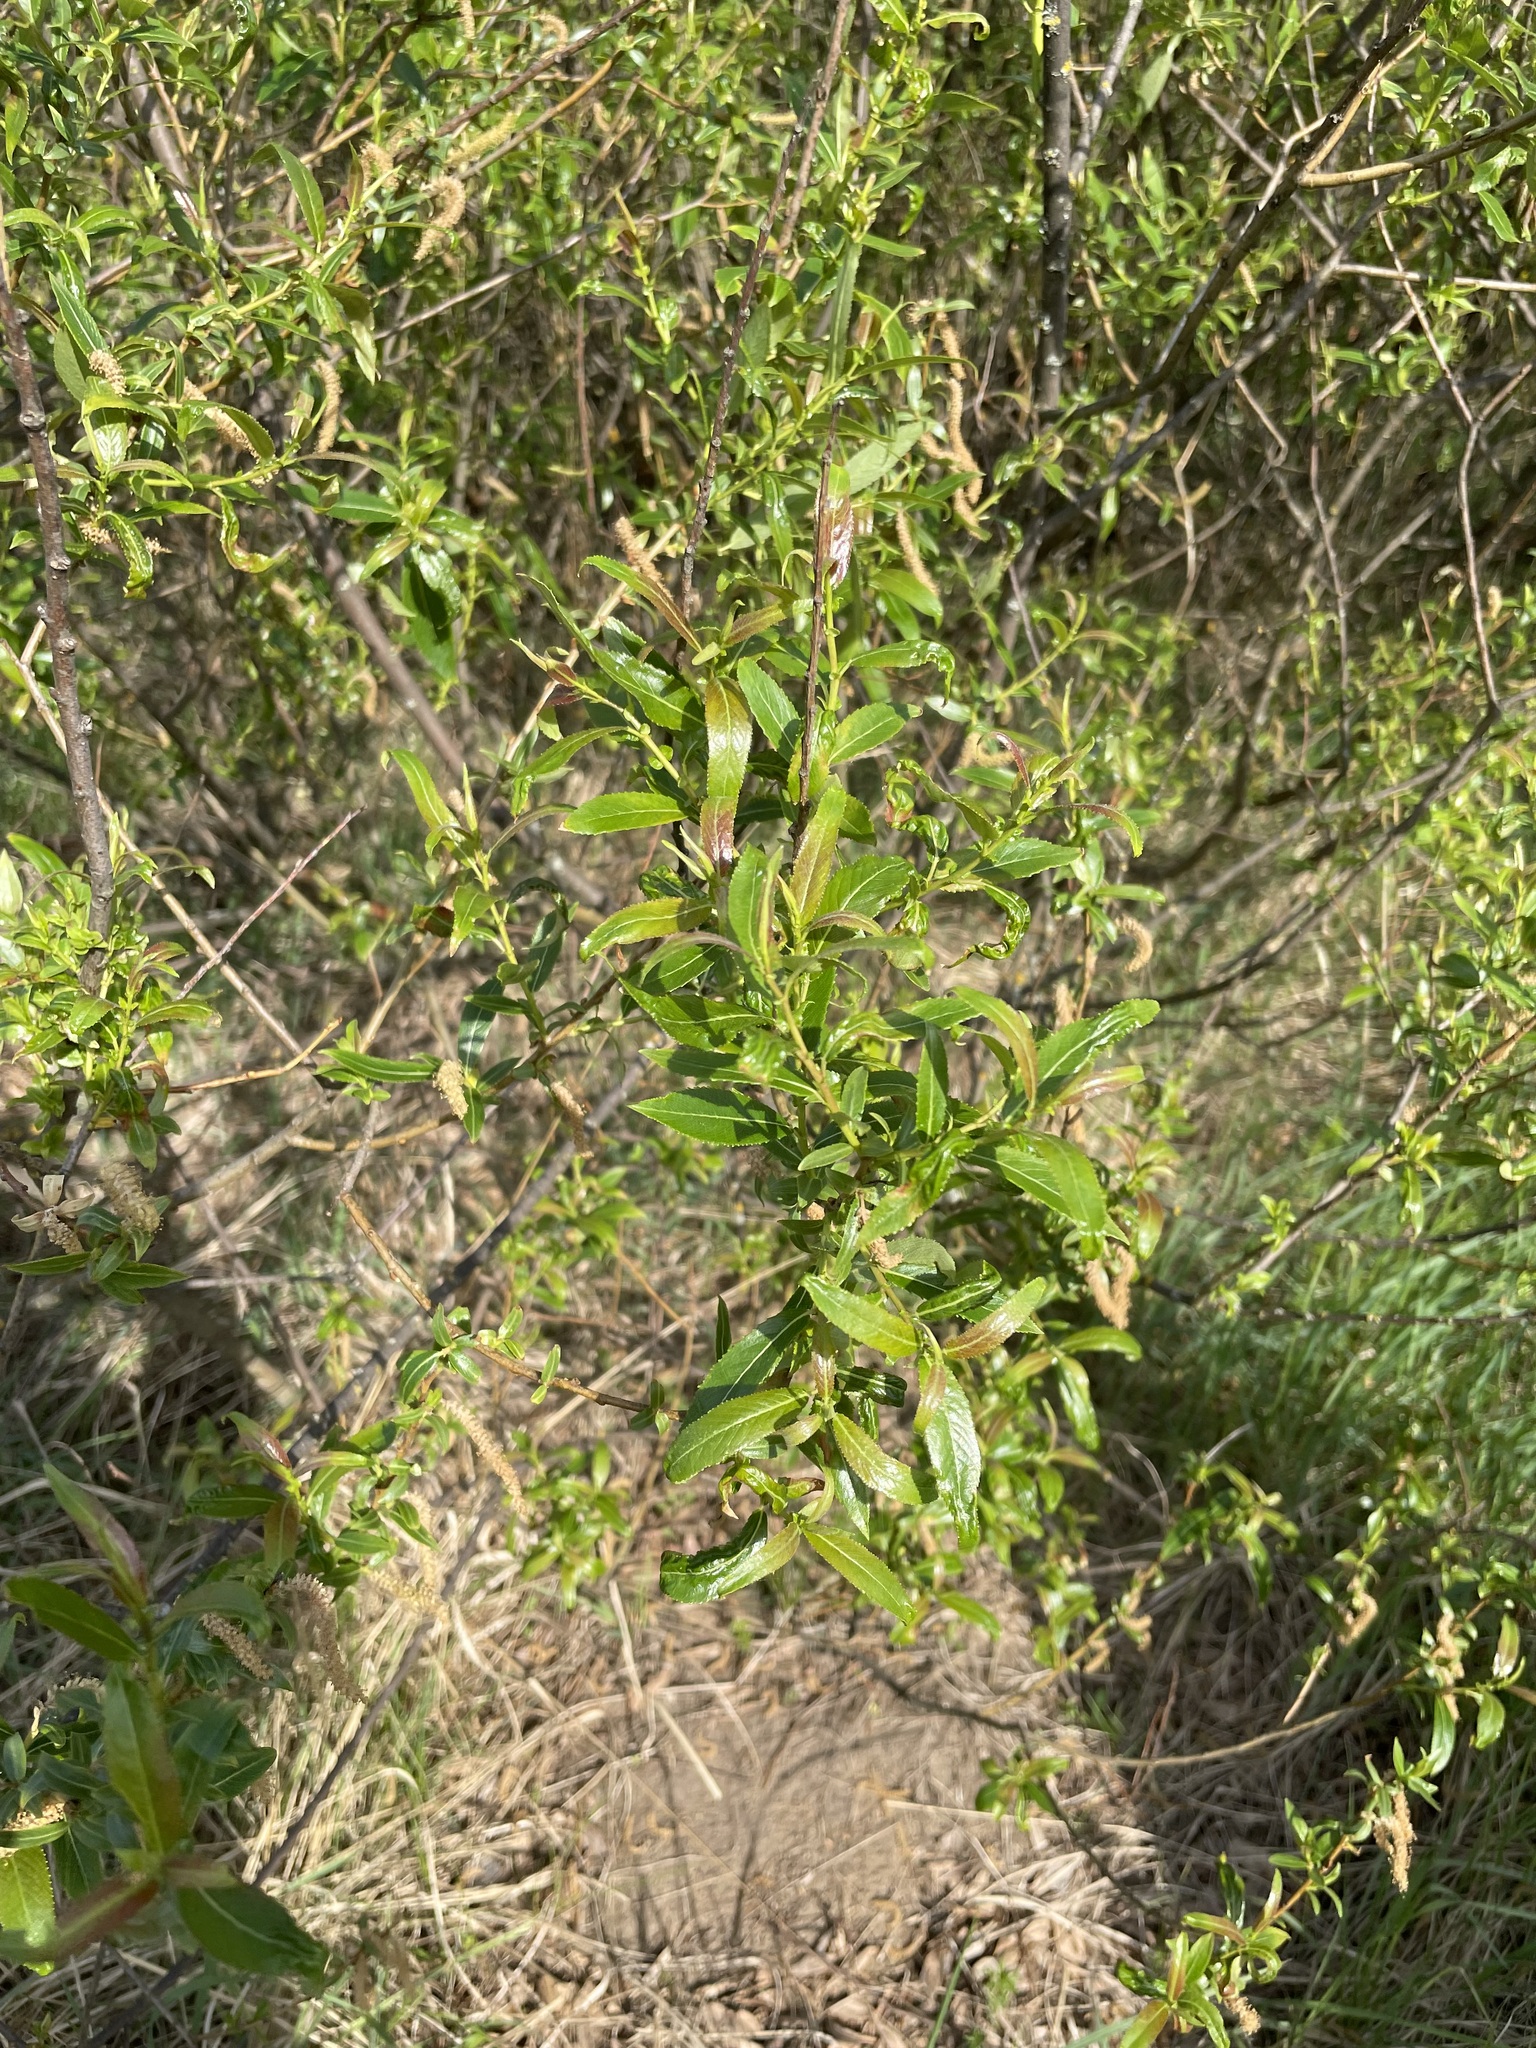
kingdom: Plantae
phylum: Tracheophyta
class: Magnoliopsida
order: Malpighiales
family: Salicaceae
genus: Salix
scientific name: Salix triandra
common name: Almond willow
